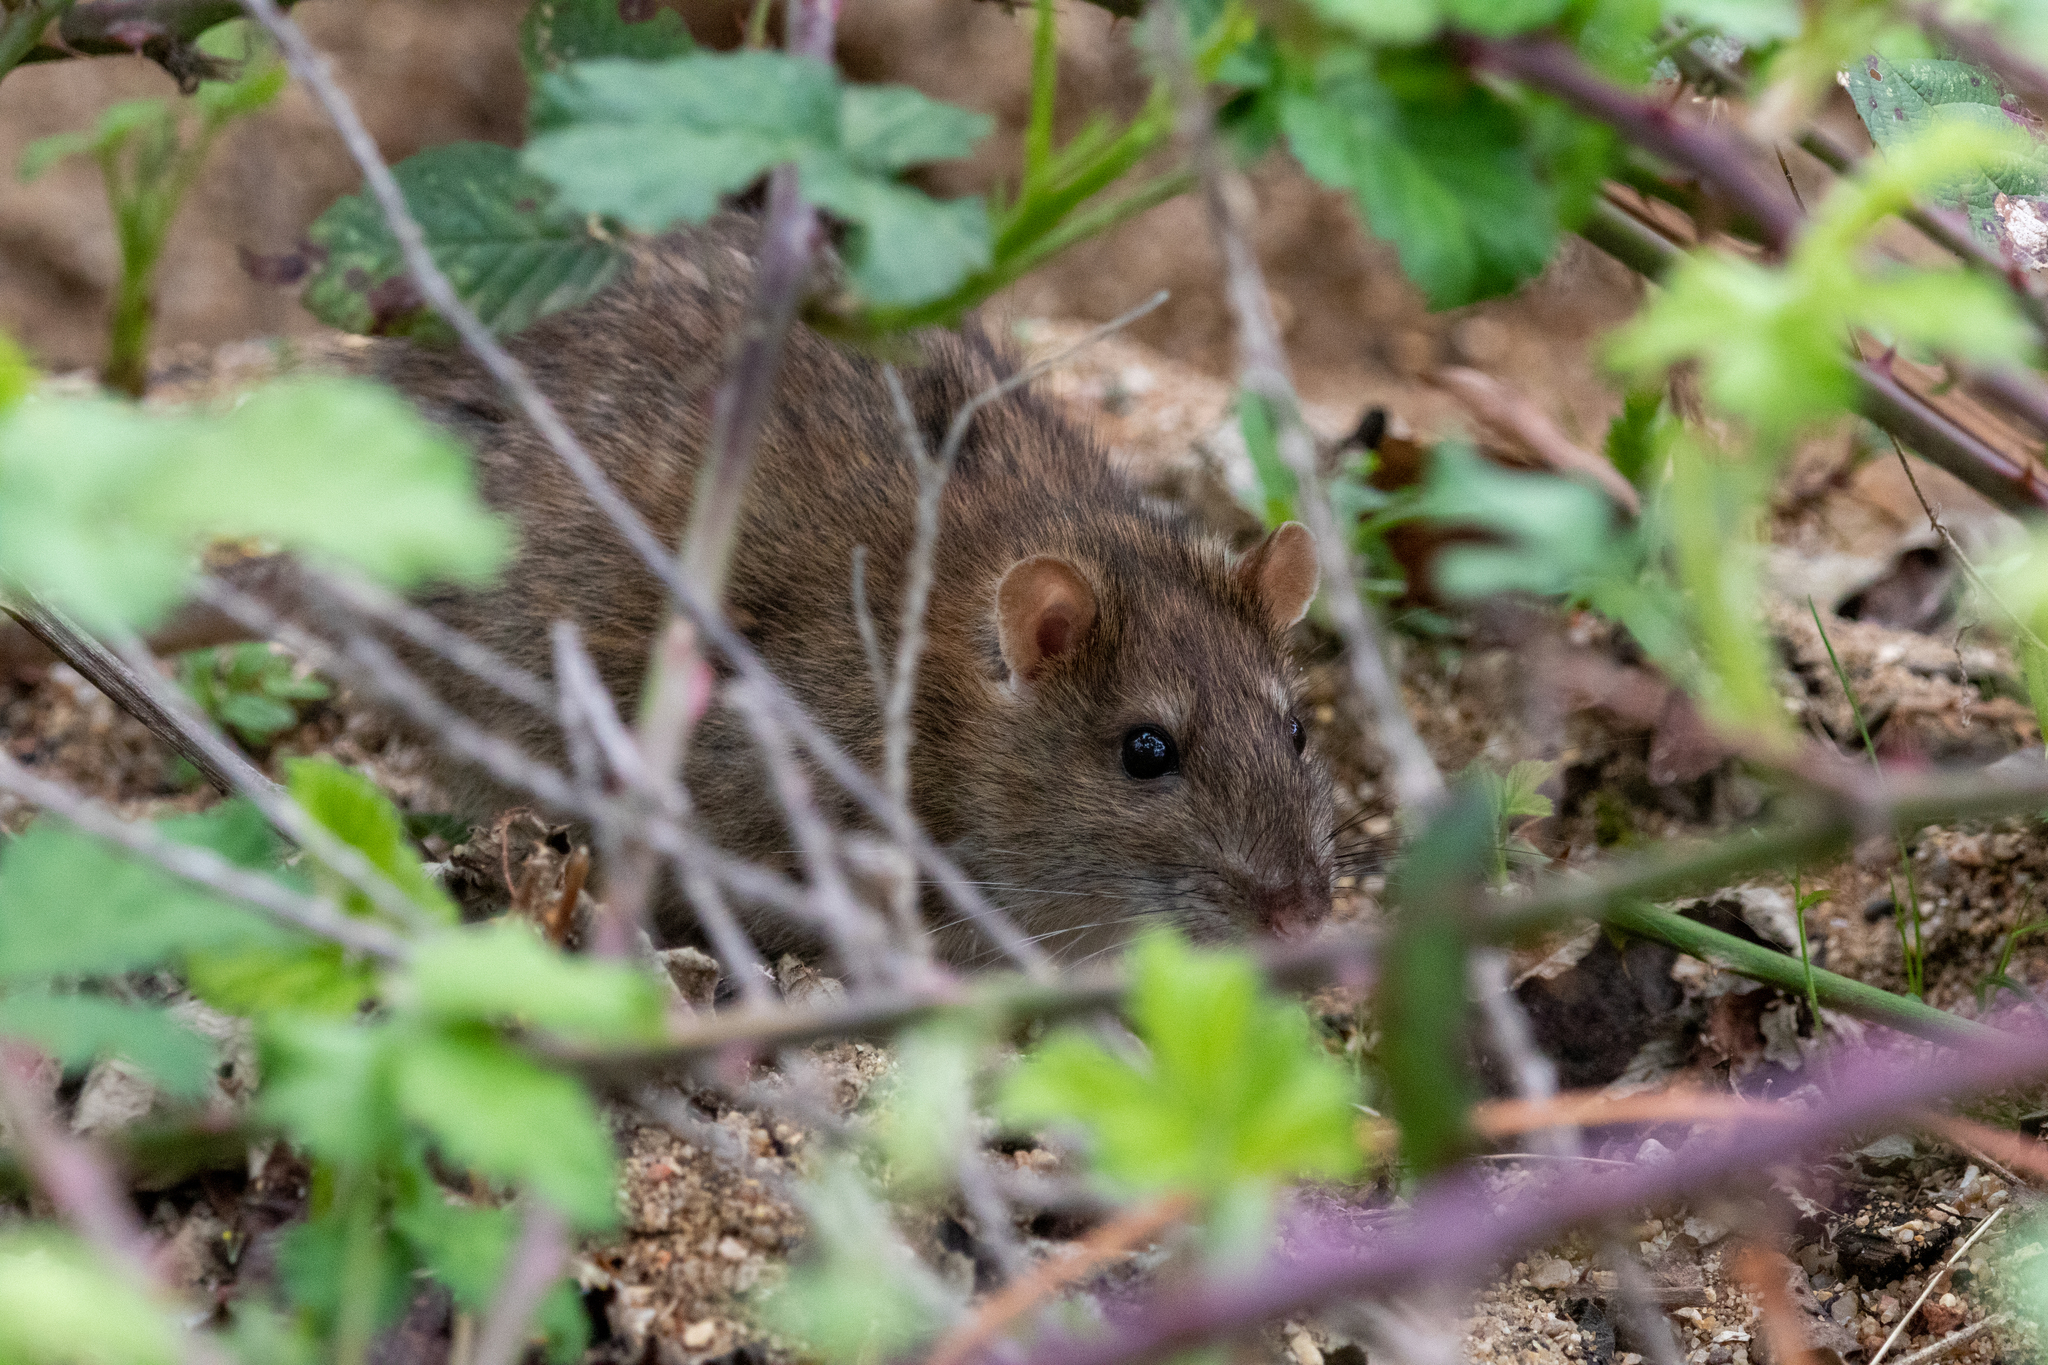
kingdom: Animalia
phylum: Chordata
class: Mammalia
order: Rodentia
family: Muridae
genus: Rattus
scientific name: Rattus norvegicus
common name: Brown rat
